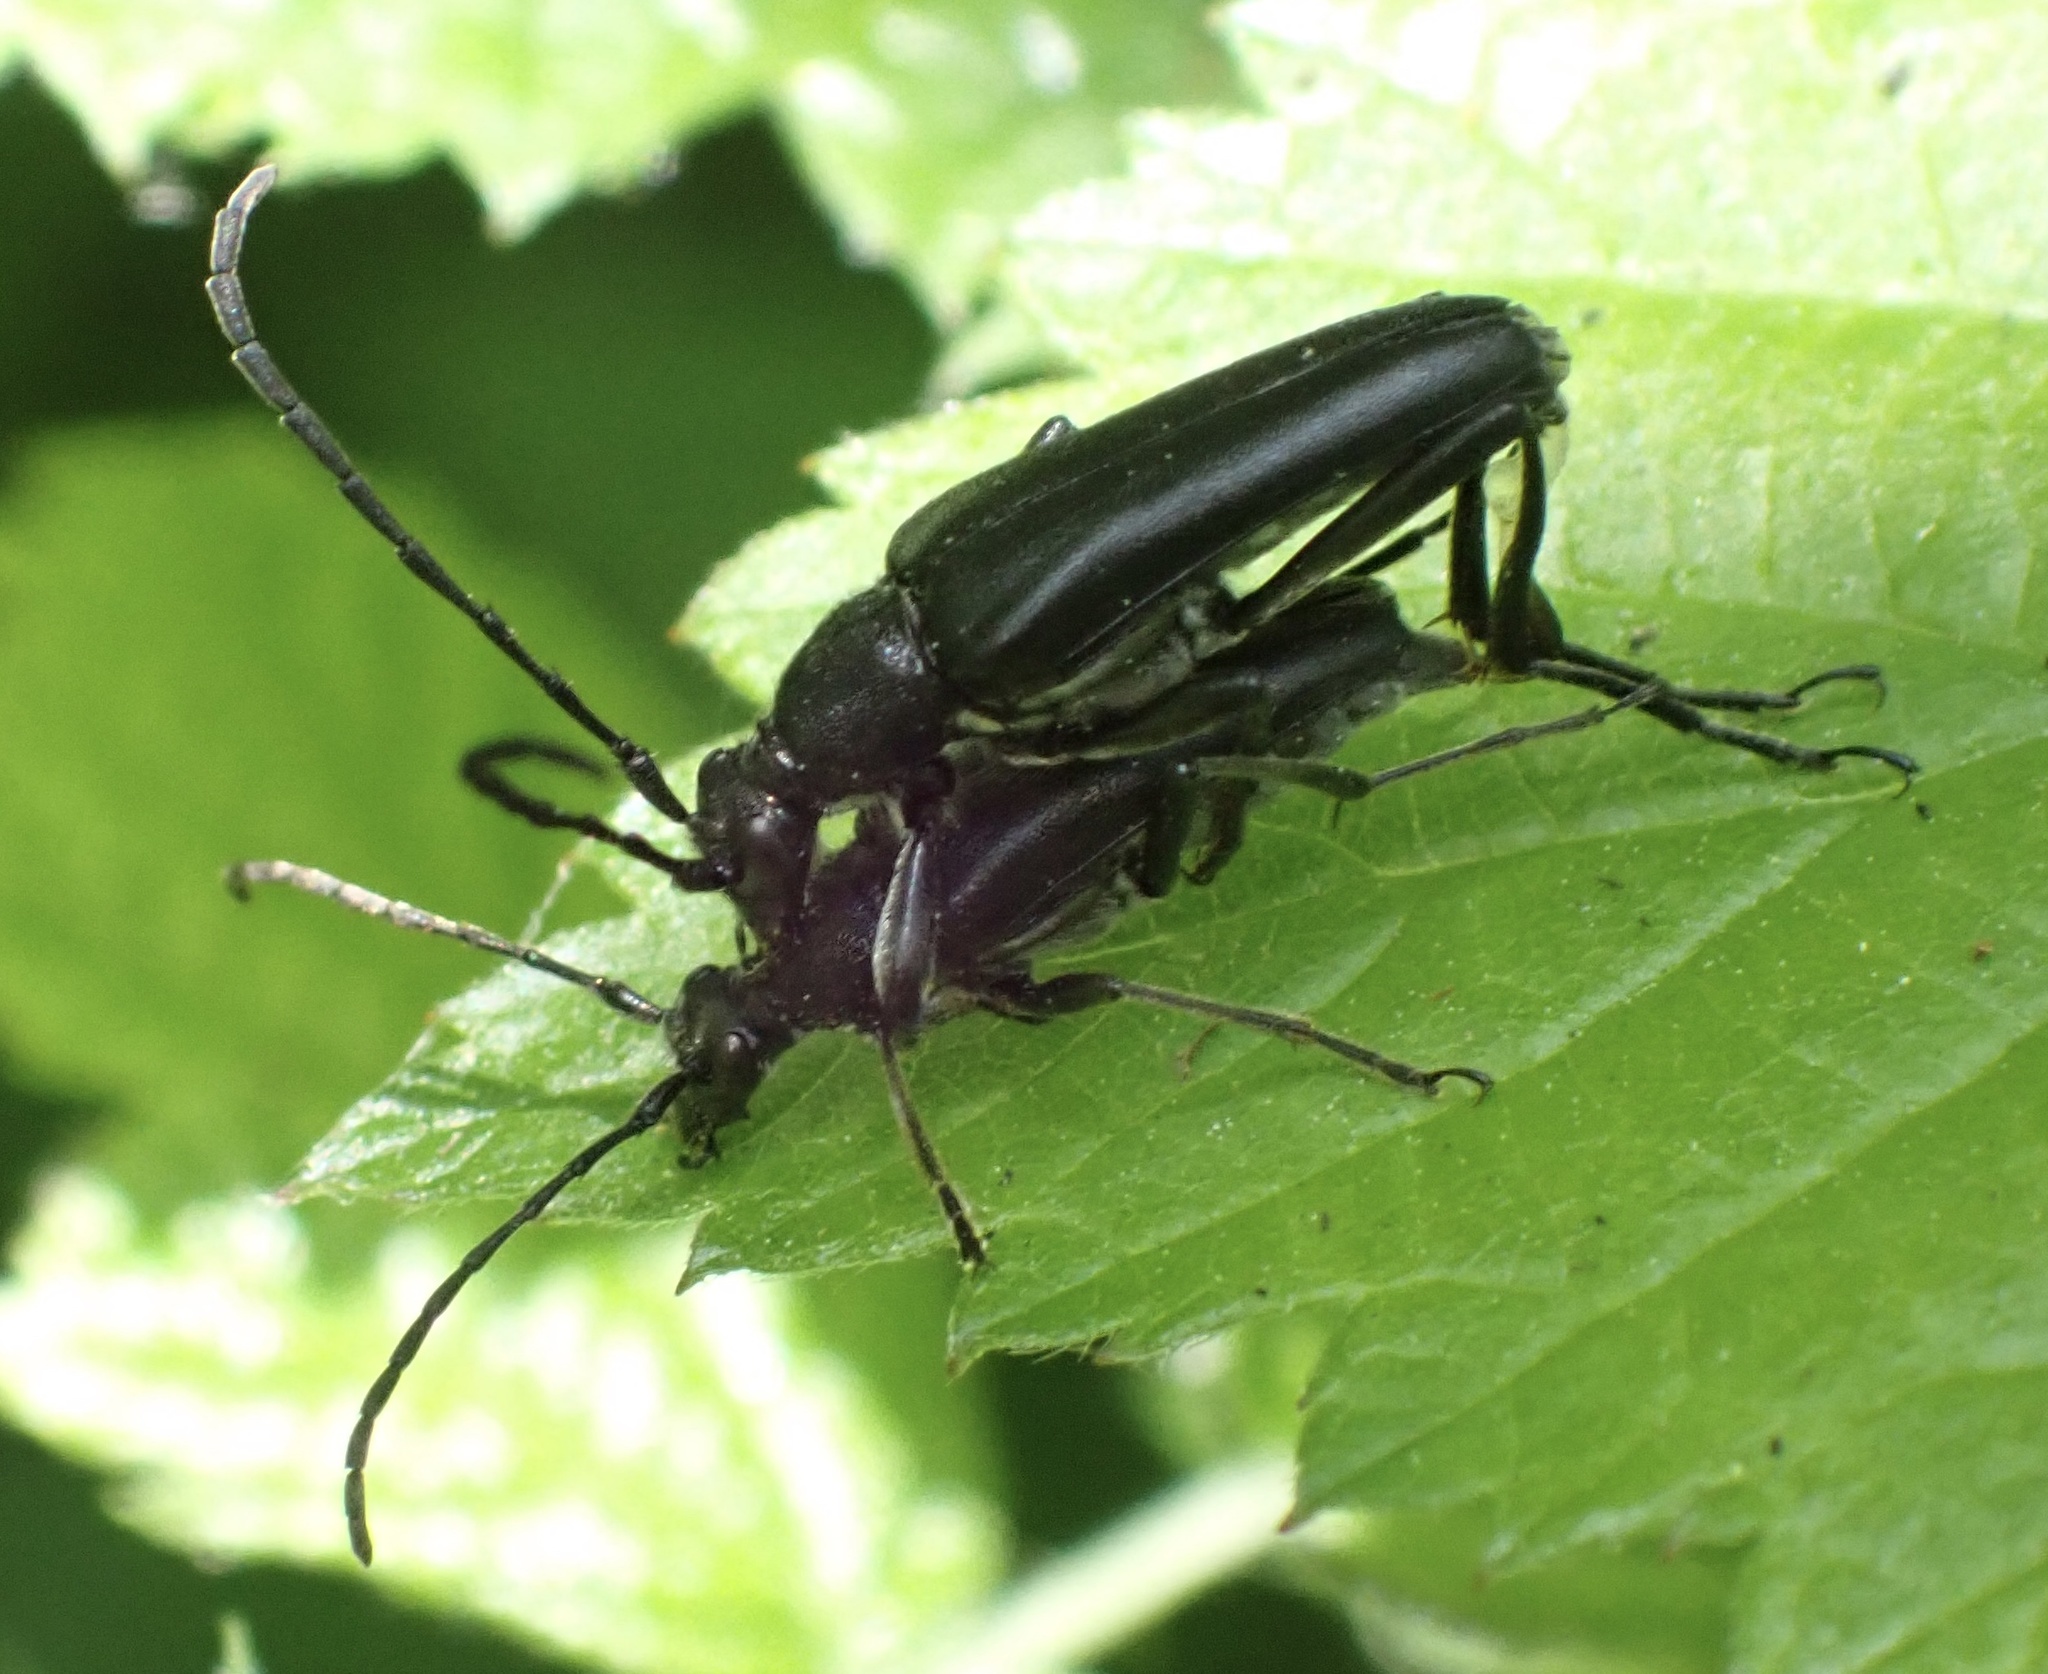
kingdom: Animalia
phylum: Arthropoda
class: Insecta
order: Coleoptera
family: Cerambycidae
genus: Leptura
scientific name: Leptura aethiops
